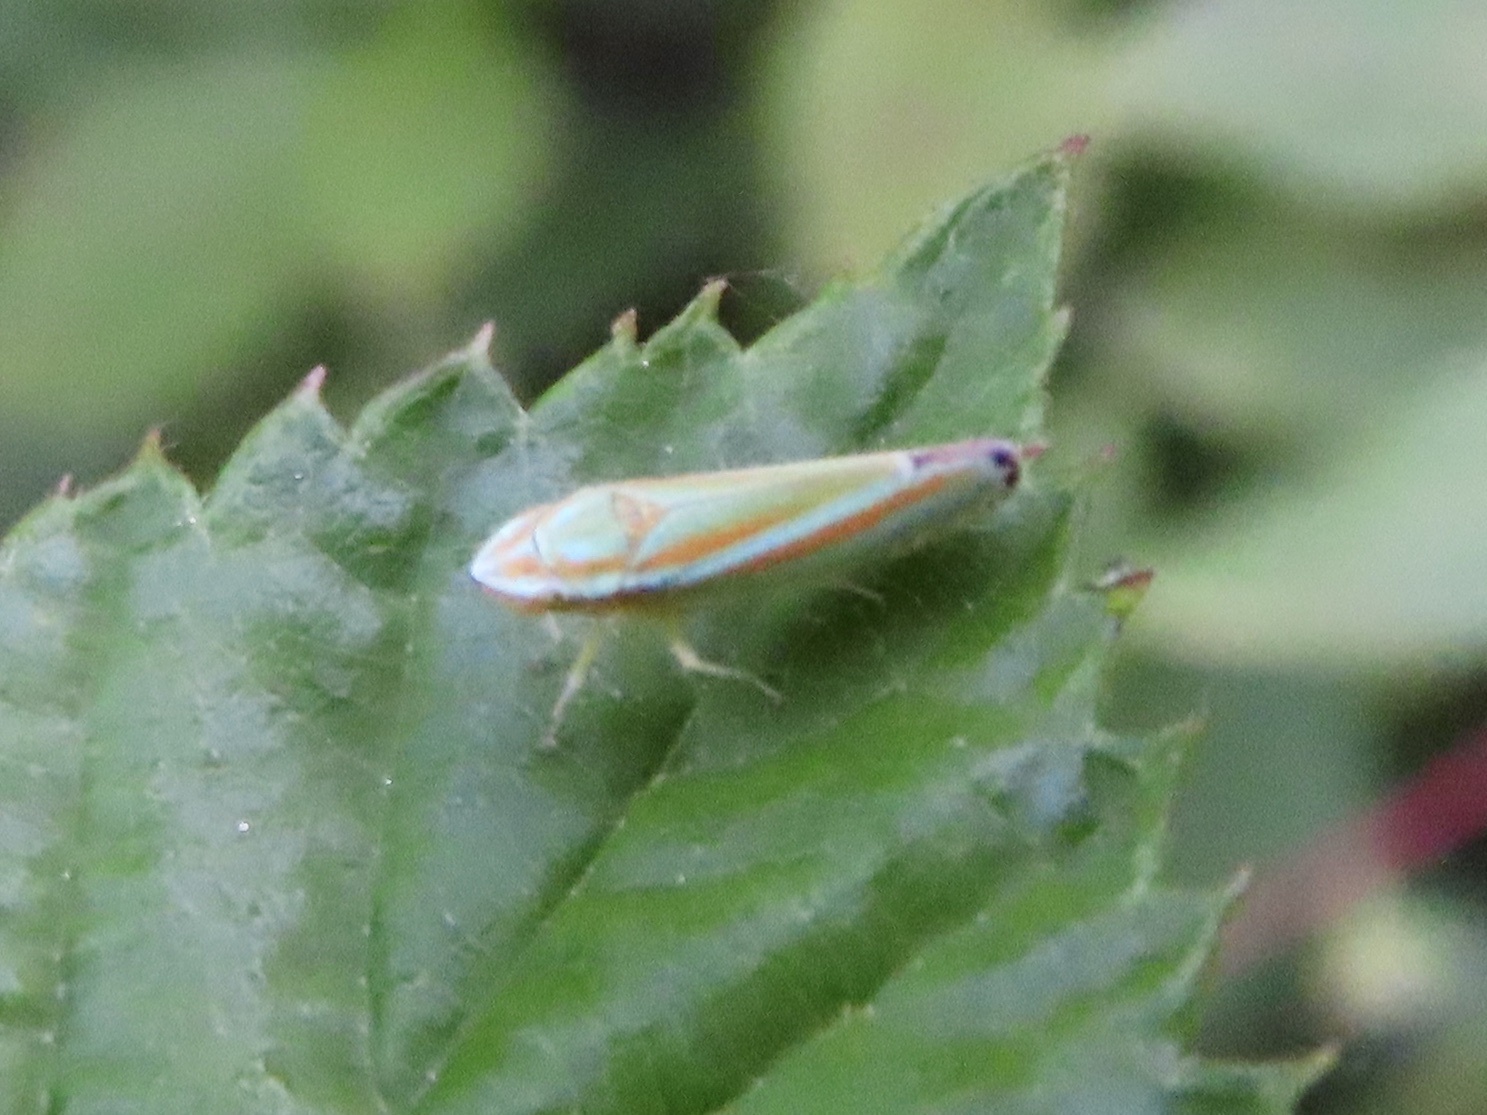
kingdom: Animalia
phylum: Arthropoda
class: Insecta
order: Hemiptera
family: Cicadellidae
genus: Graphocephala
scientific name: Graphocephala versuta
